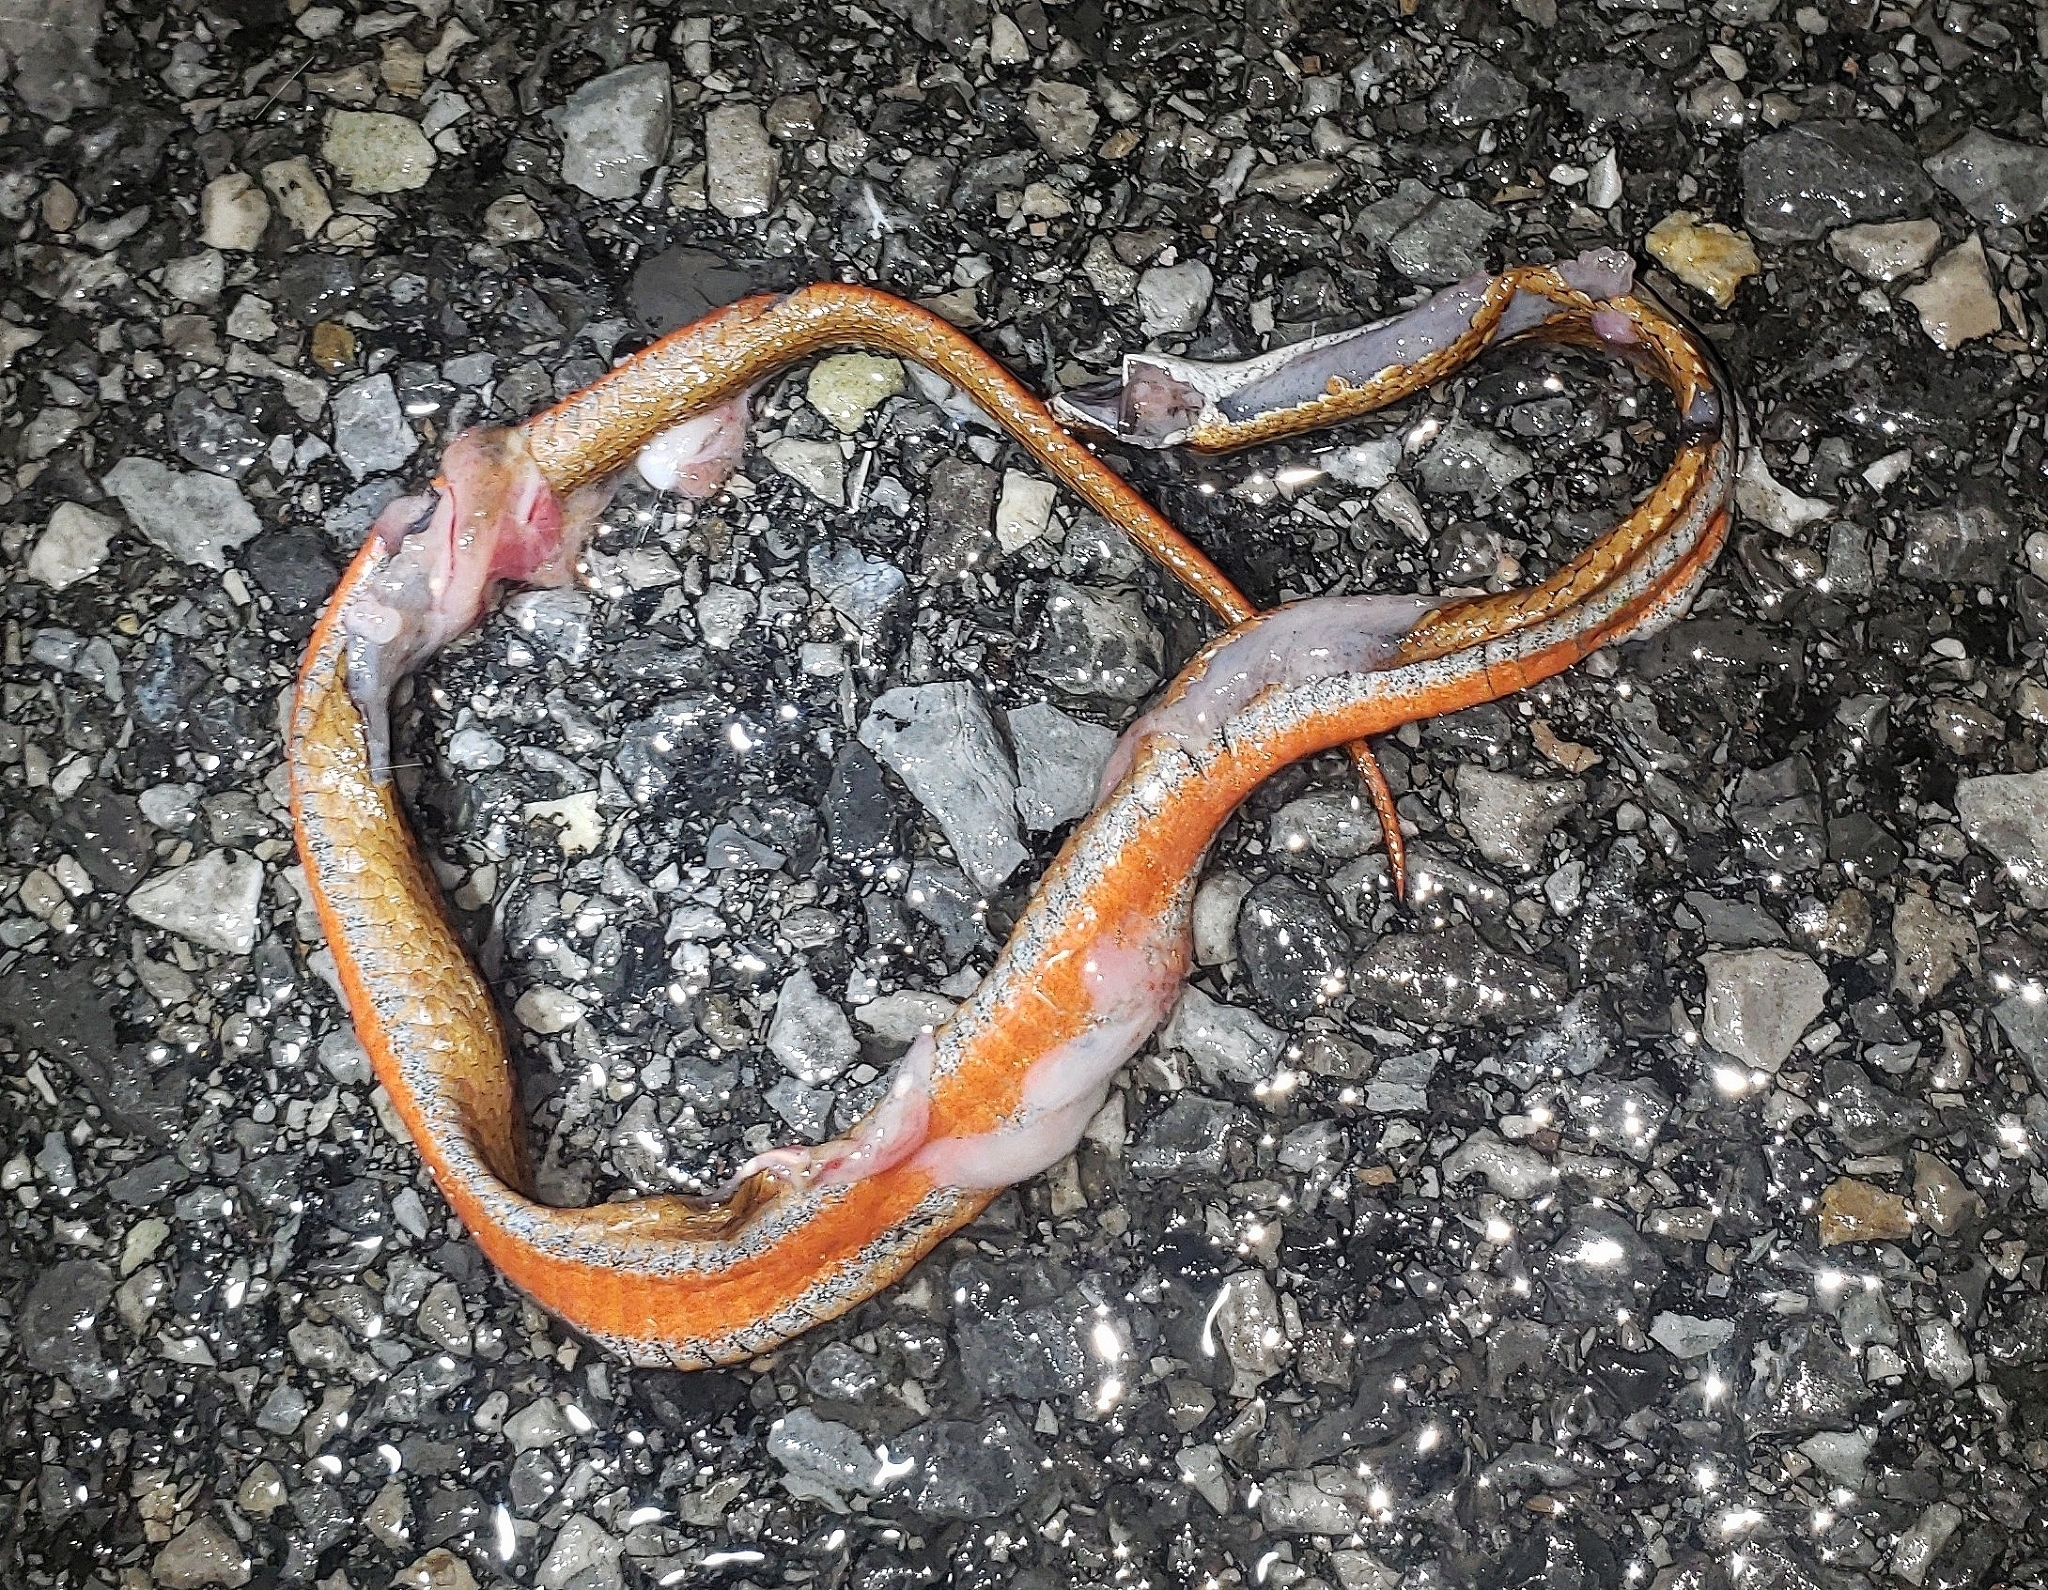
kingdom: Animalia
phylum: Chordata
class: Squamata
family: Colubridae
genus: Storeria
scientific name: Storeria occipitomaculata
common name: Redbelly snake
